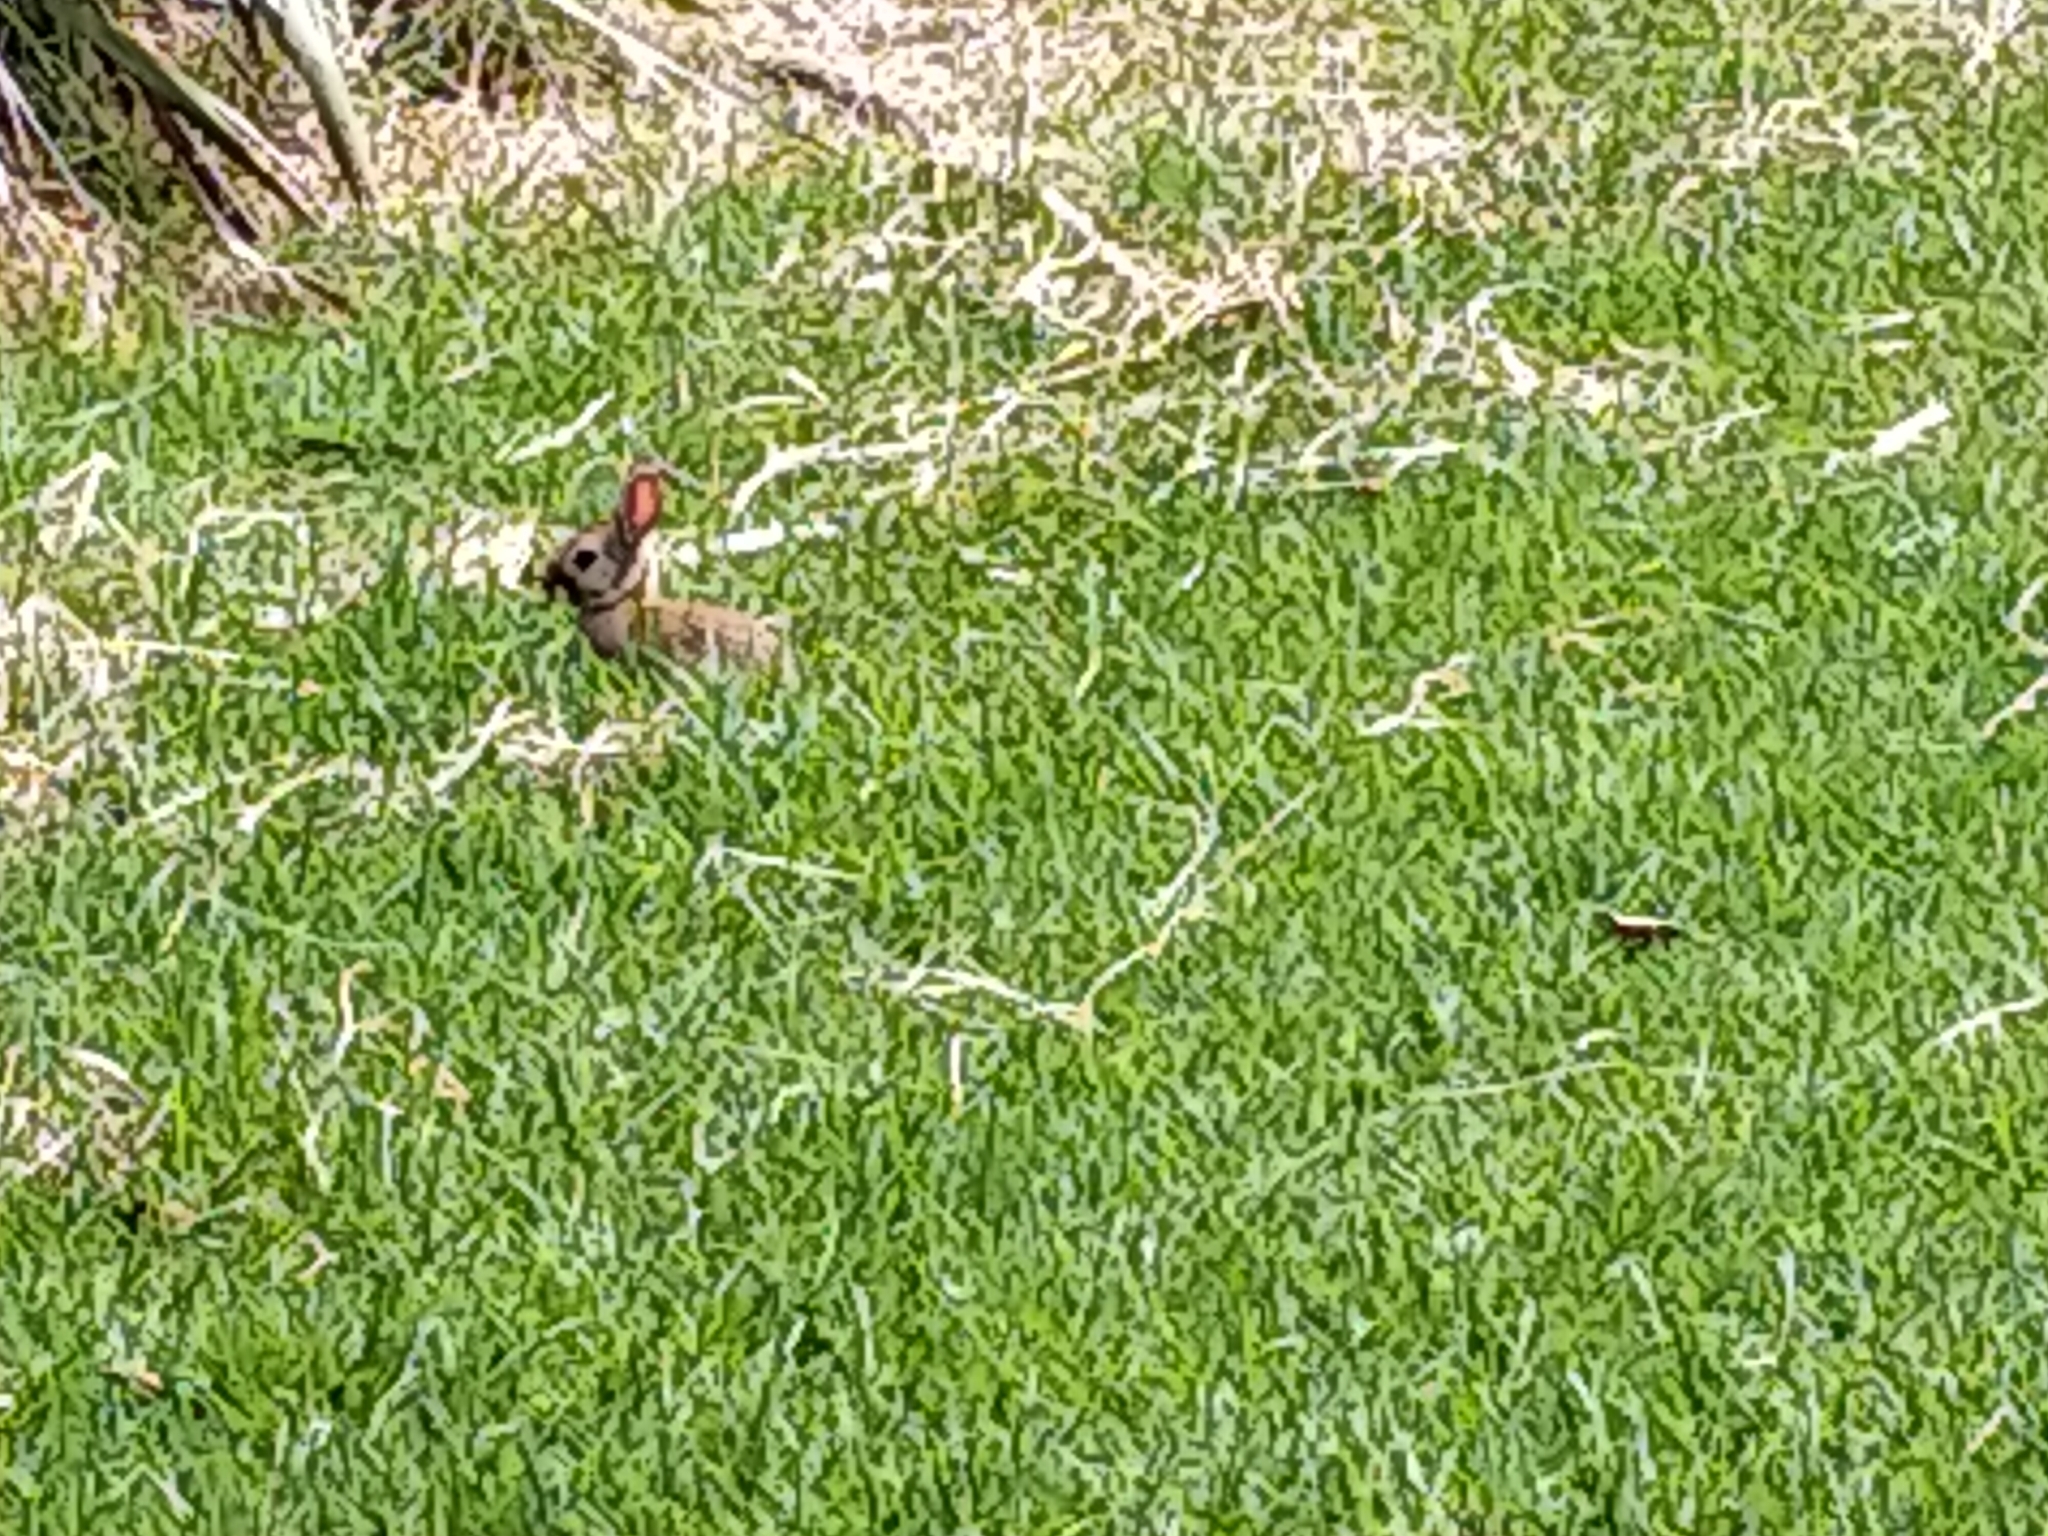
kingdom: Animalia
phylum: Chordata
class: Mammalia
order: Lagomorpha
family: Leporidae
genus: Oryctolagus
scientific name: Oryctolagus cuniculus
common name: European rabbit
